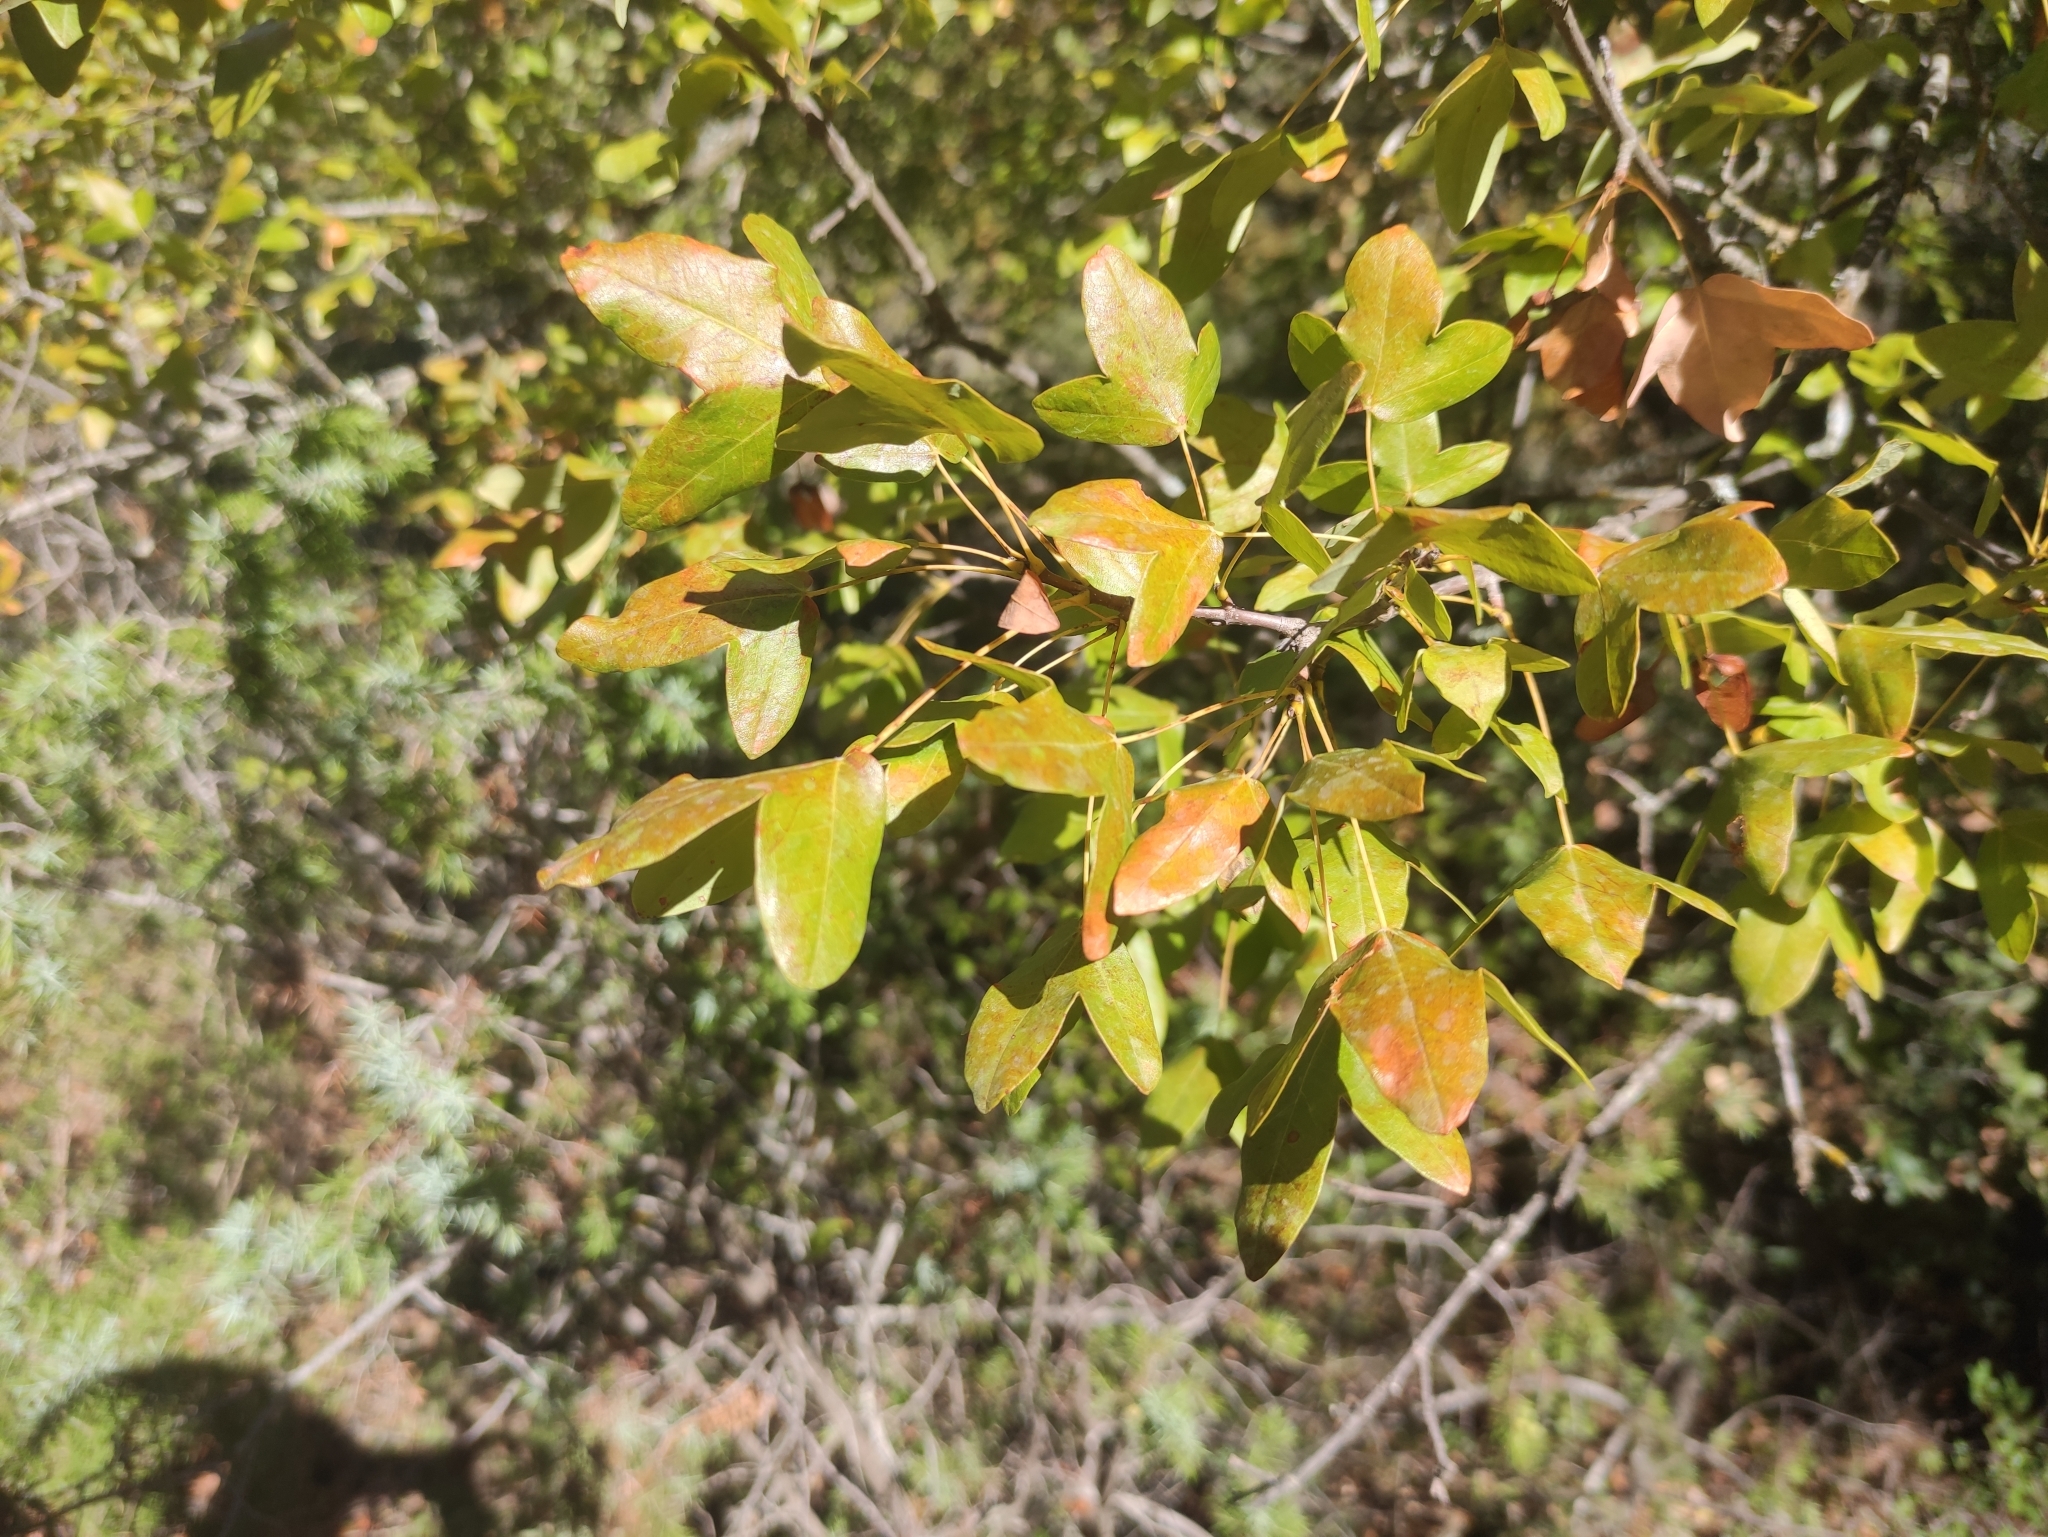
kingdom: Plantae
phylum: Tracheophyta
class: Magnoliopsida
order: Sapindales
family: Sapindaceae
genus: Acer
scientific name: Acer monspessulanum
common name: Montpellier maple
